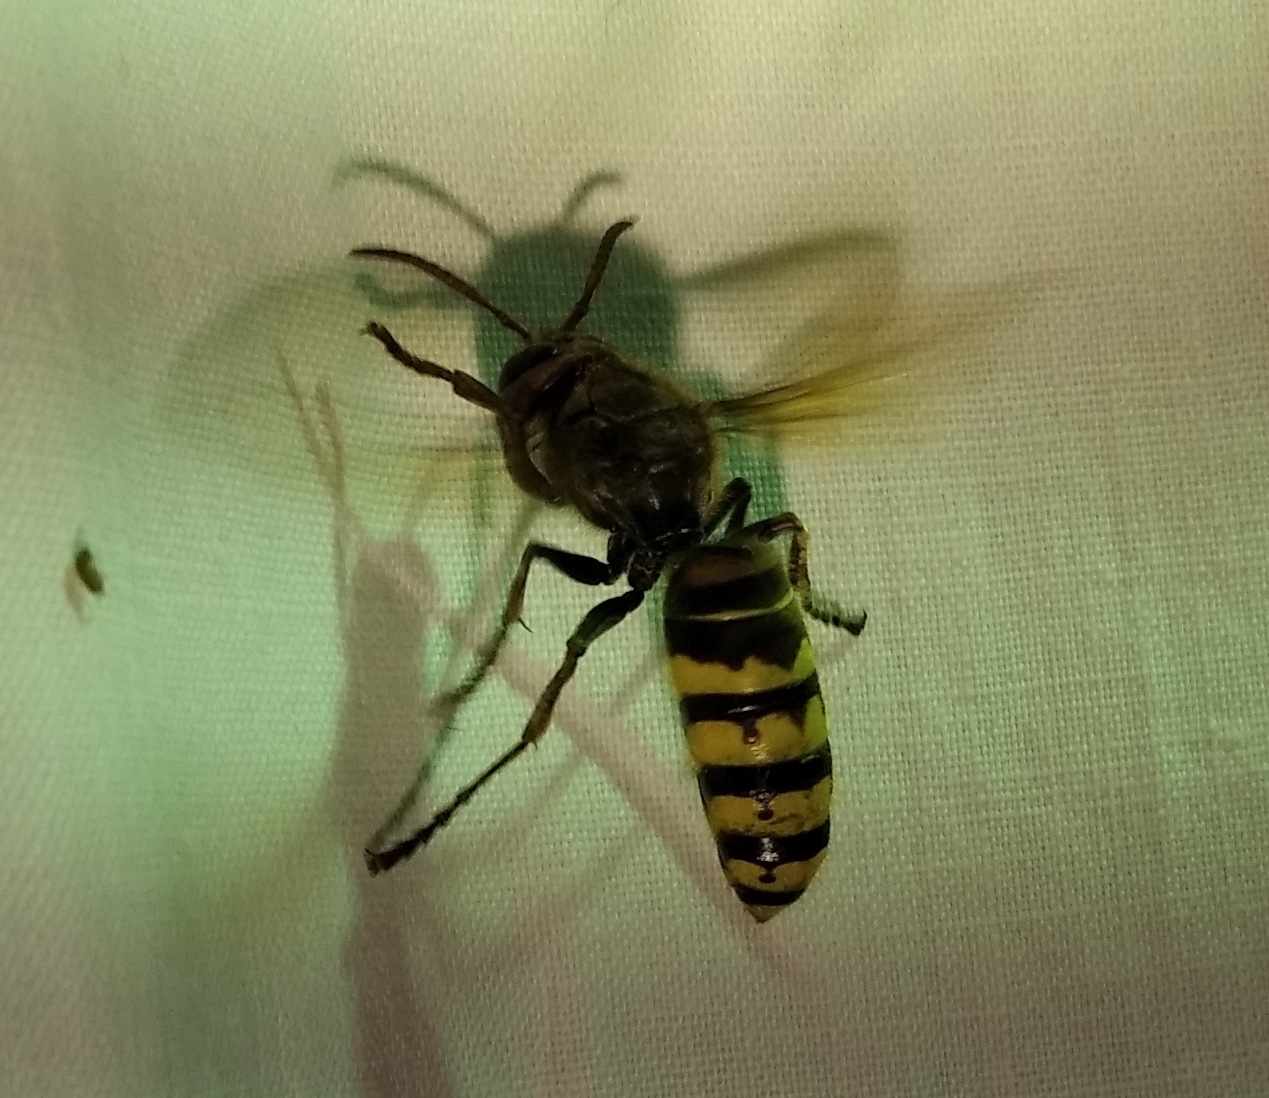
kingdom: Animalia
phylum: Arthropoda
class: Insecta
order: Hymenoptera
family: Vespidae
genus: Vespa
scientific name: Vespa crabro
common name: Hornet
